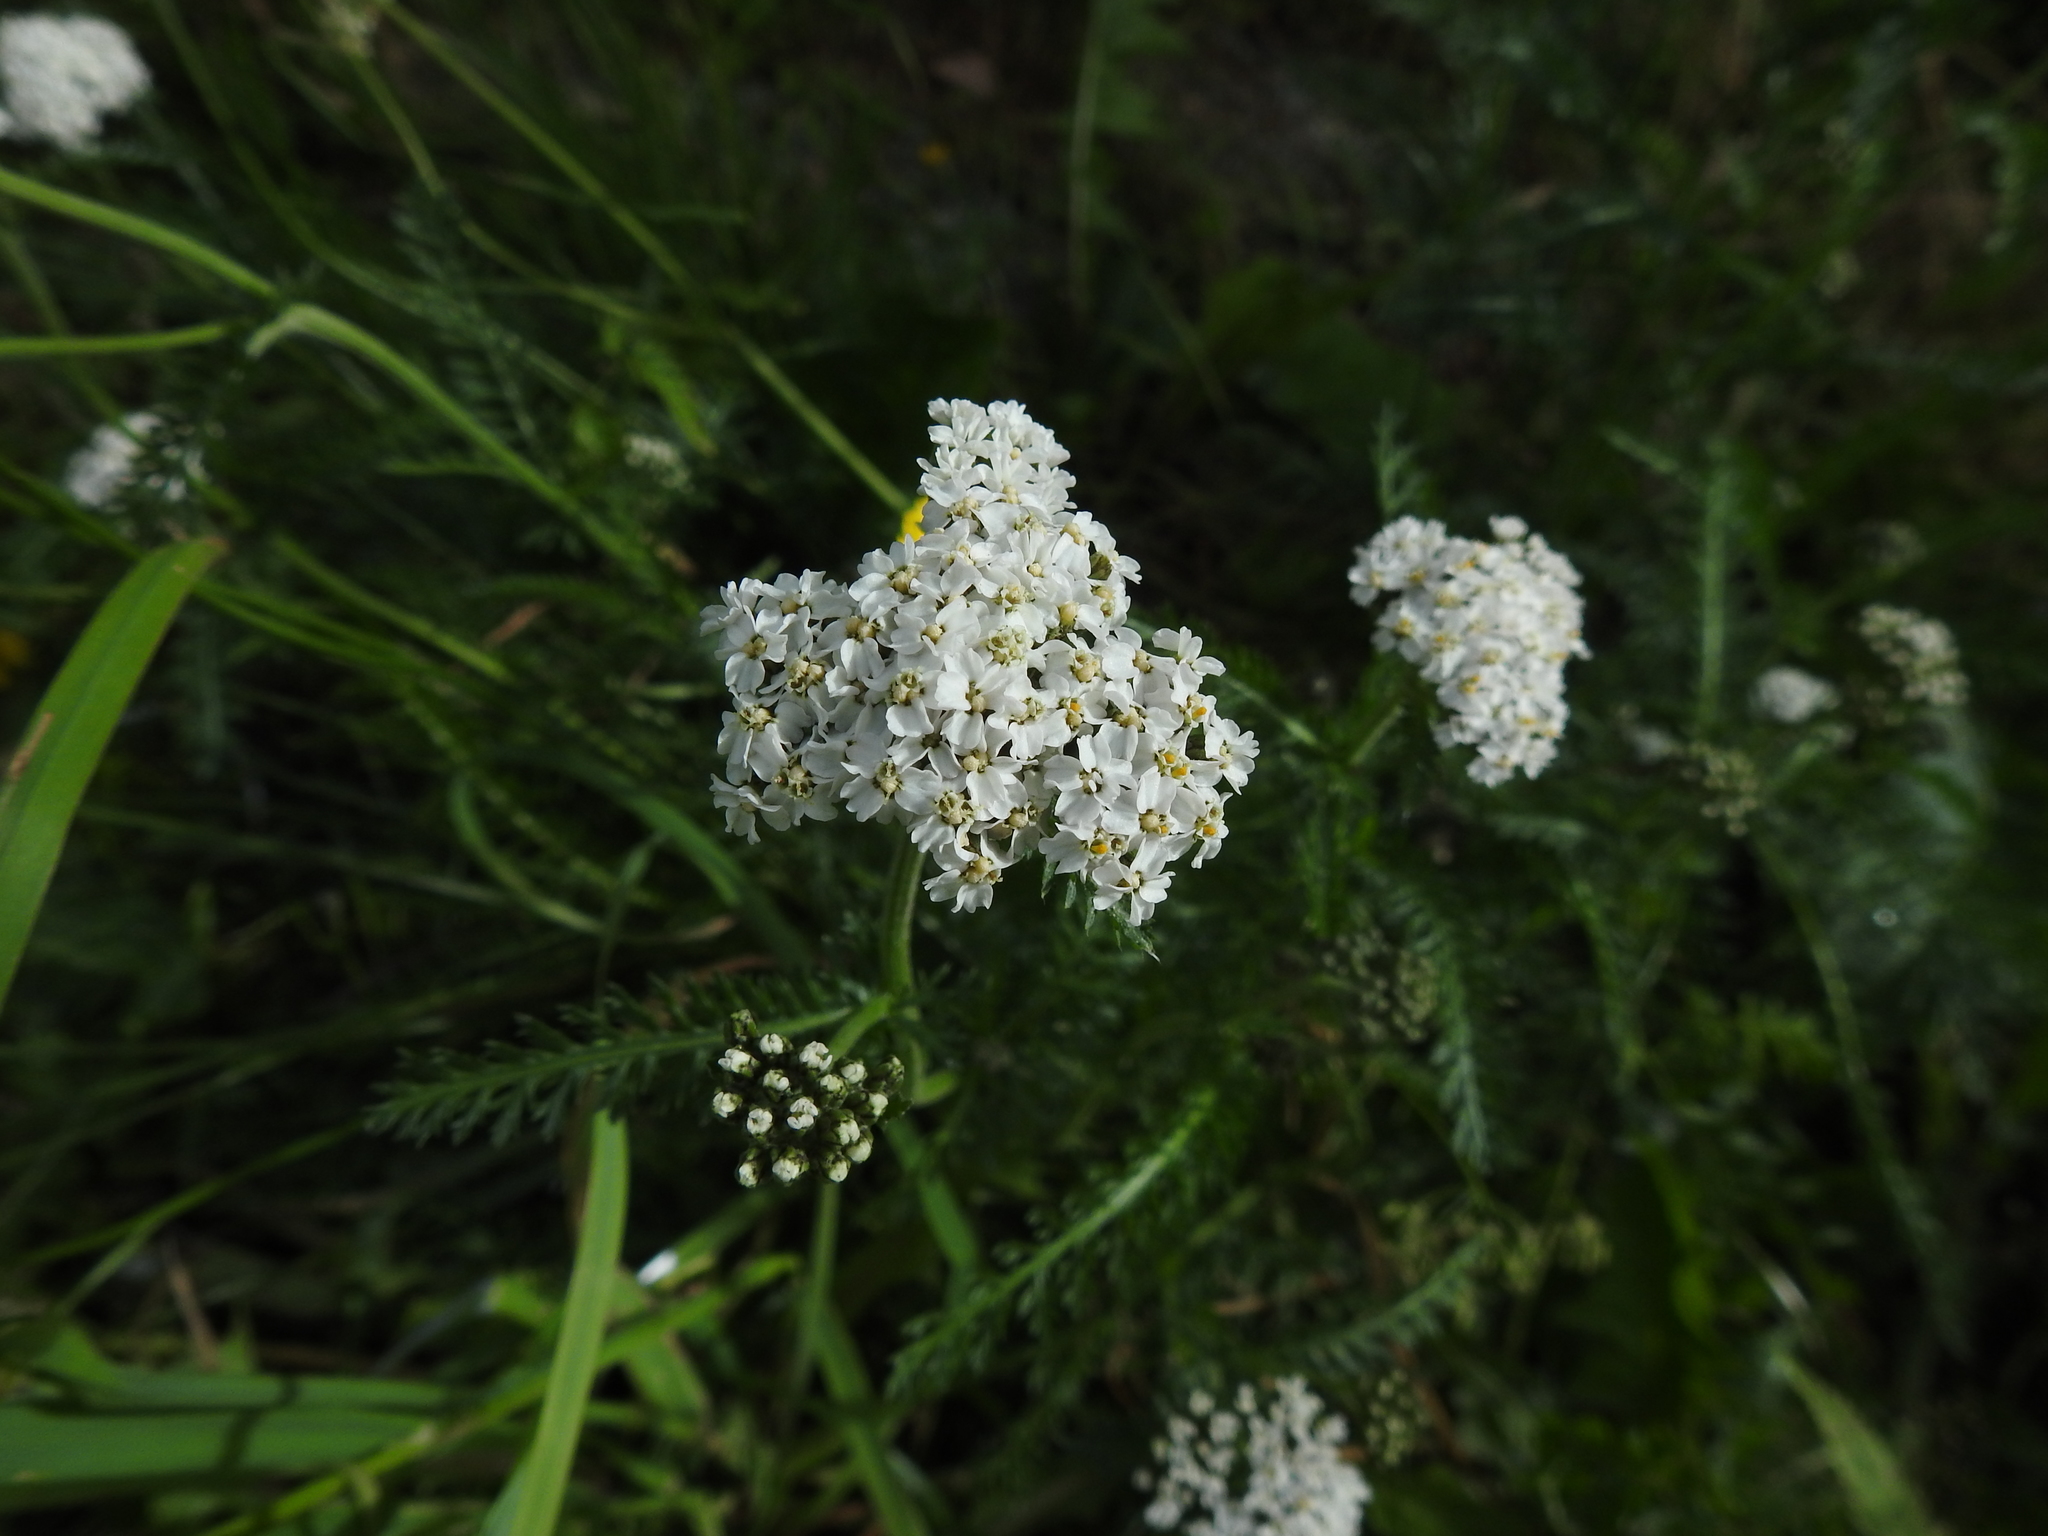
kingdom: Plantae
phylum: Tracheophyta
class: Magnoliopsida
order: Asterales
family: Asteraceae
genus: Achillea
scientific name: Achillea millefolium
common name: Yarrow
